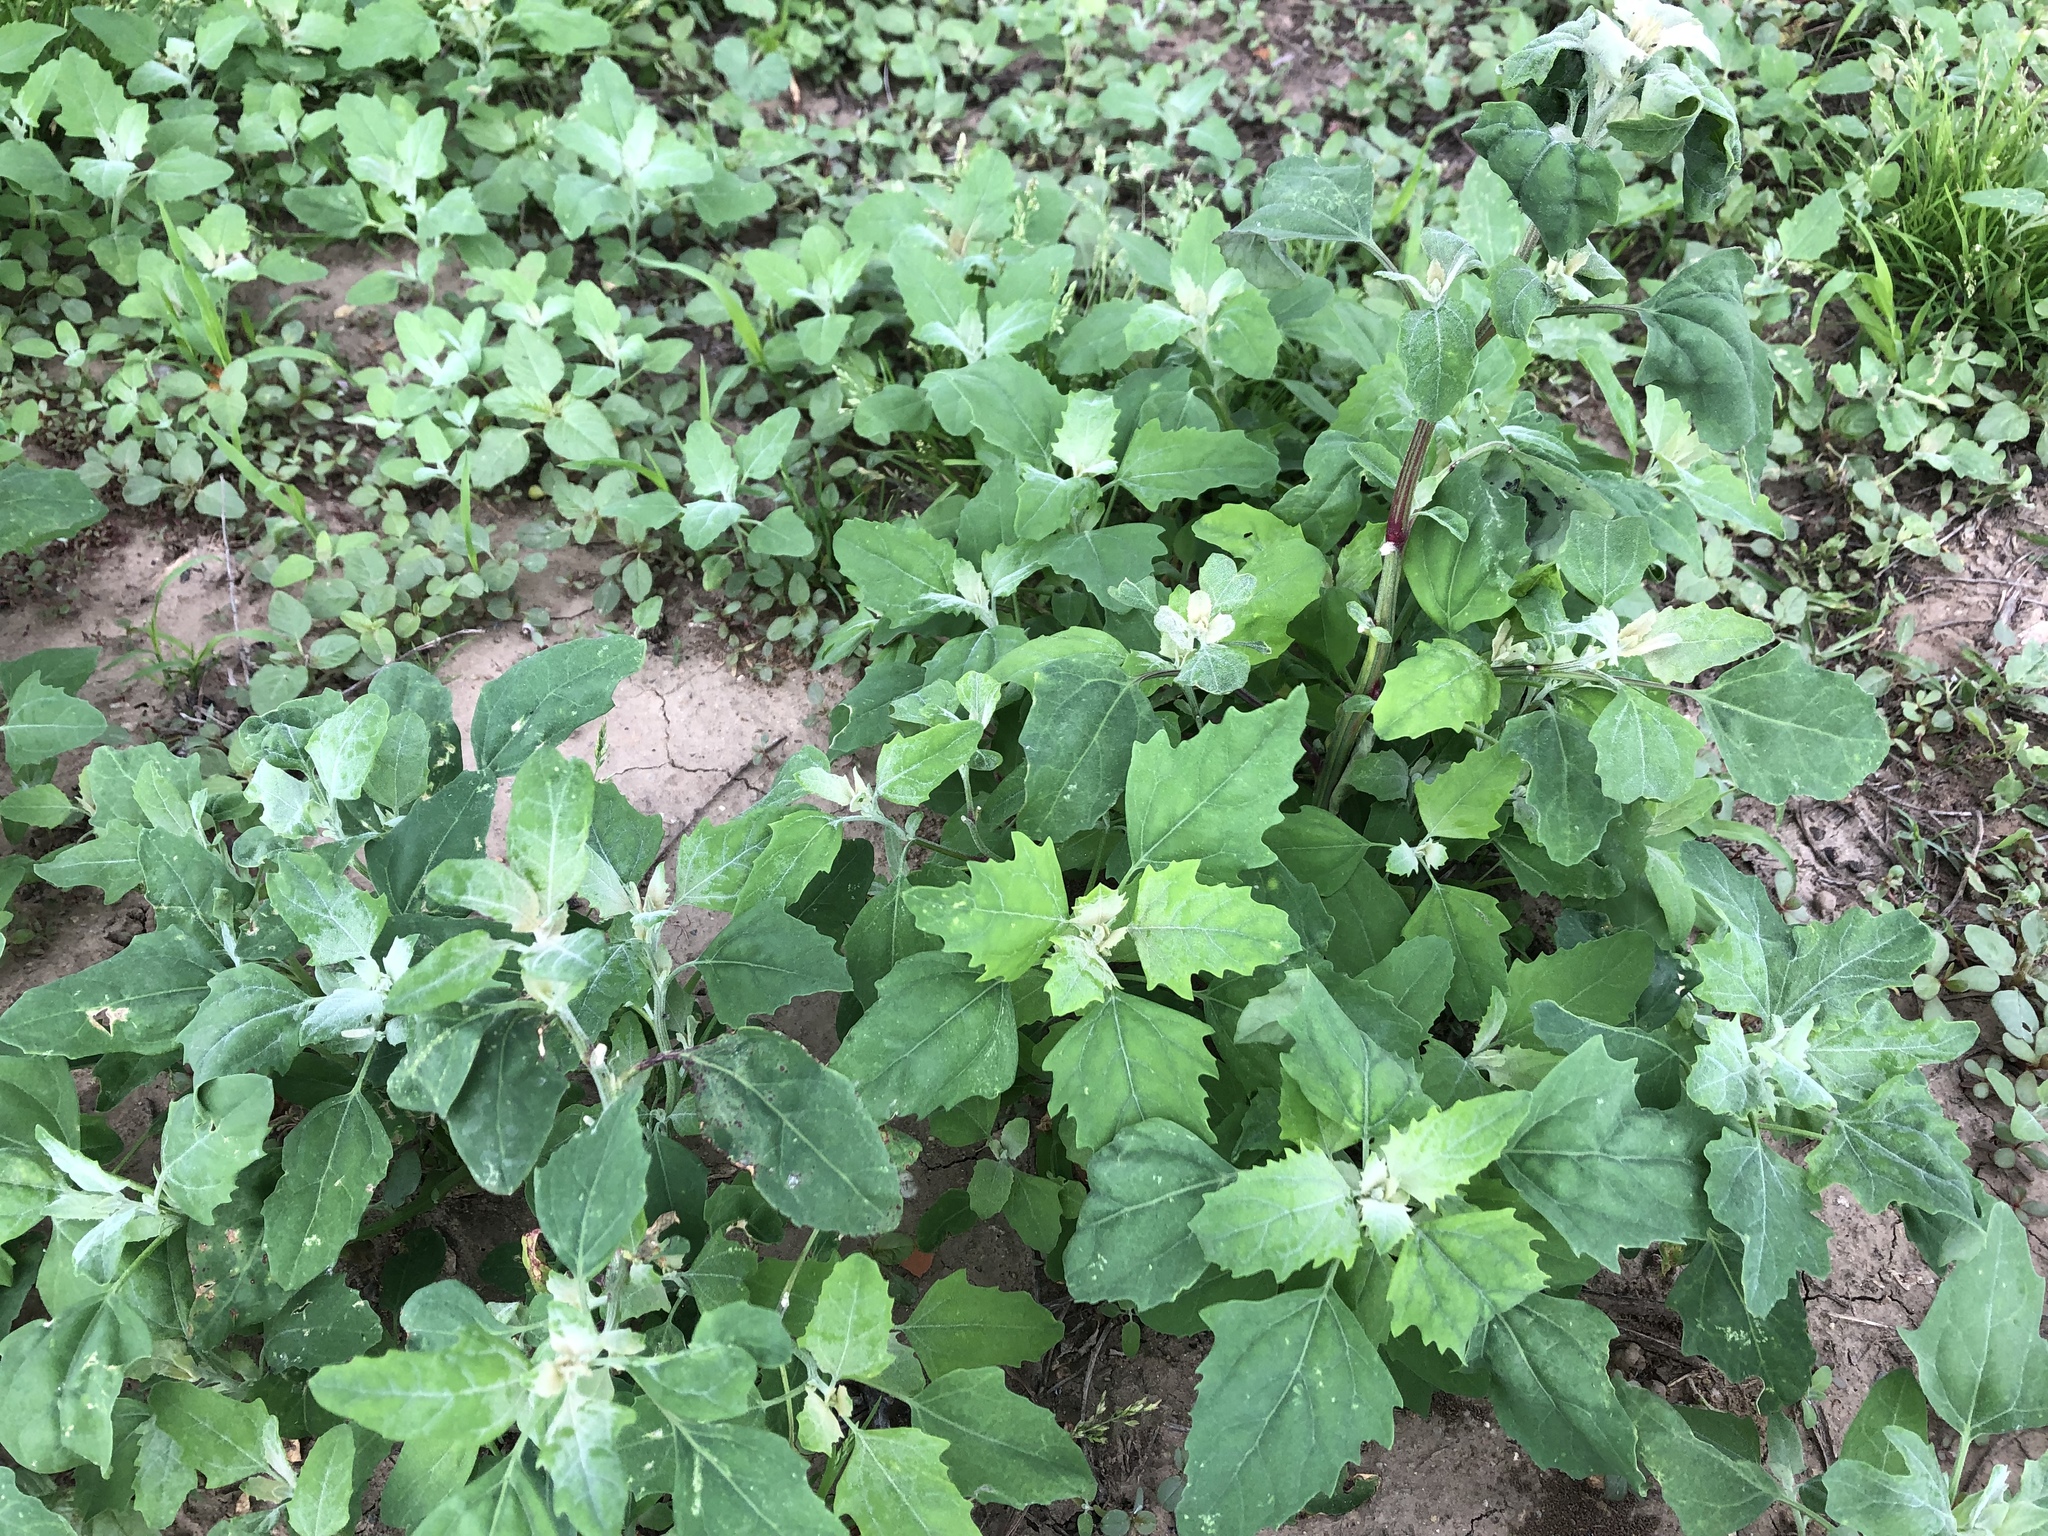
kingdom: Plantae
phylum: Tracheophyta
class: Magnoliopsida
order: Caryophyllales
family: Amaranthaceae
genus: Chenopodium
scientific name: Chenopodium album
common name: Fat-hen
